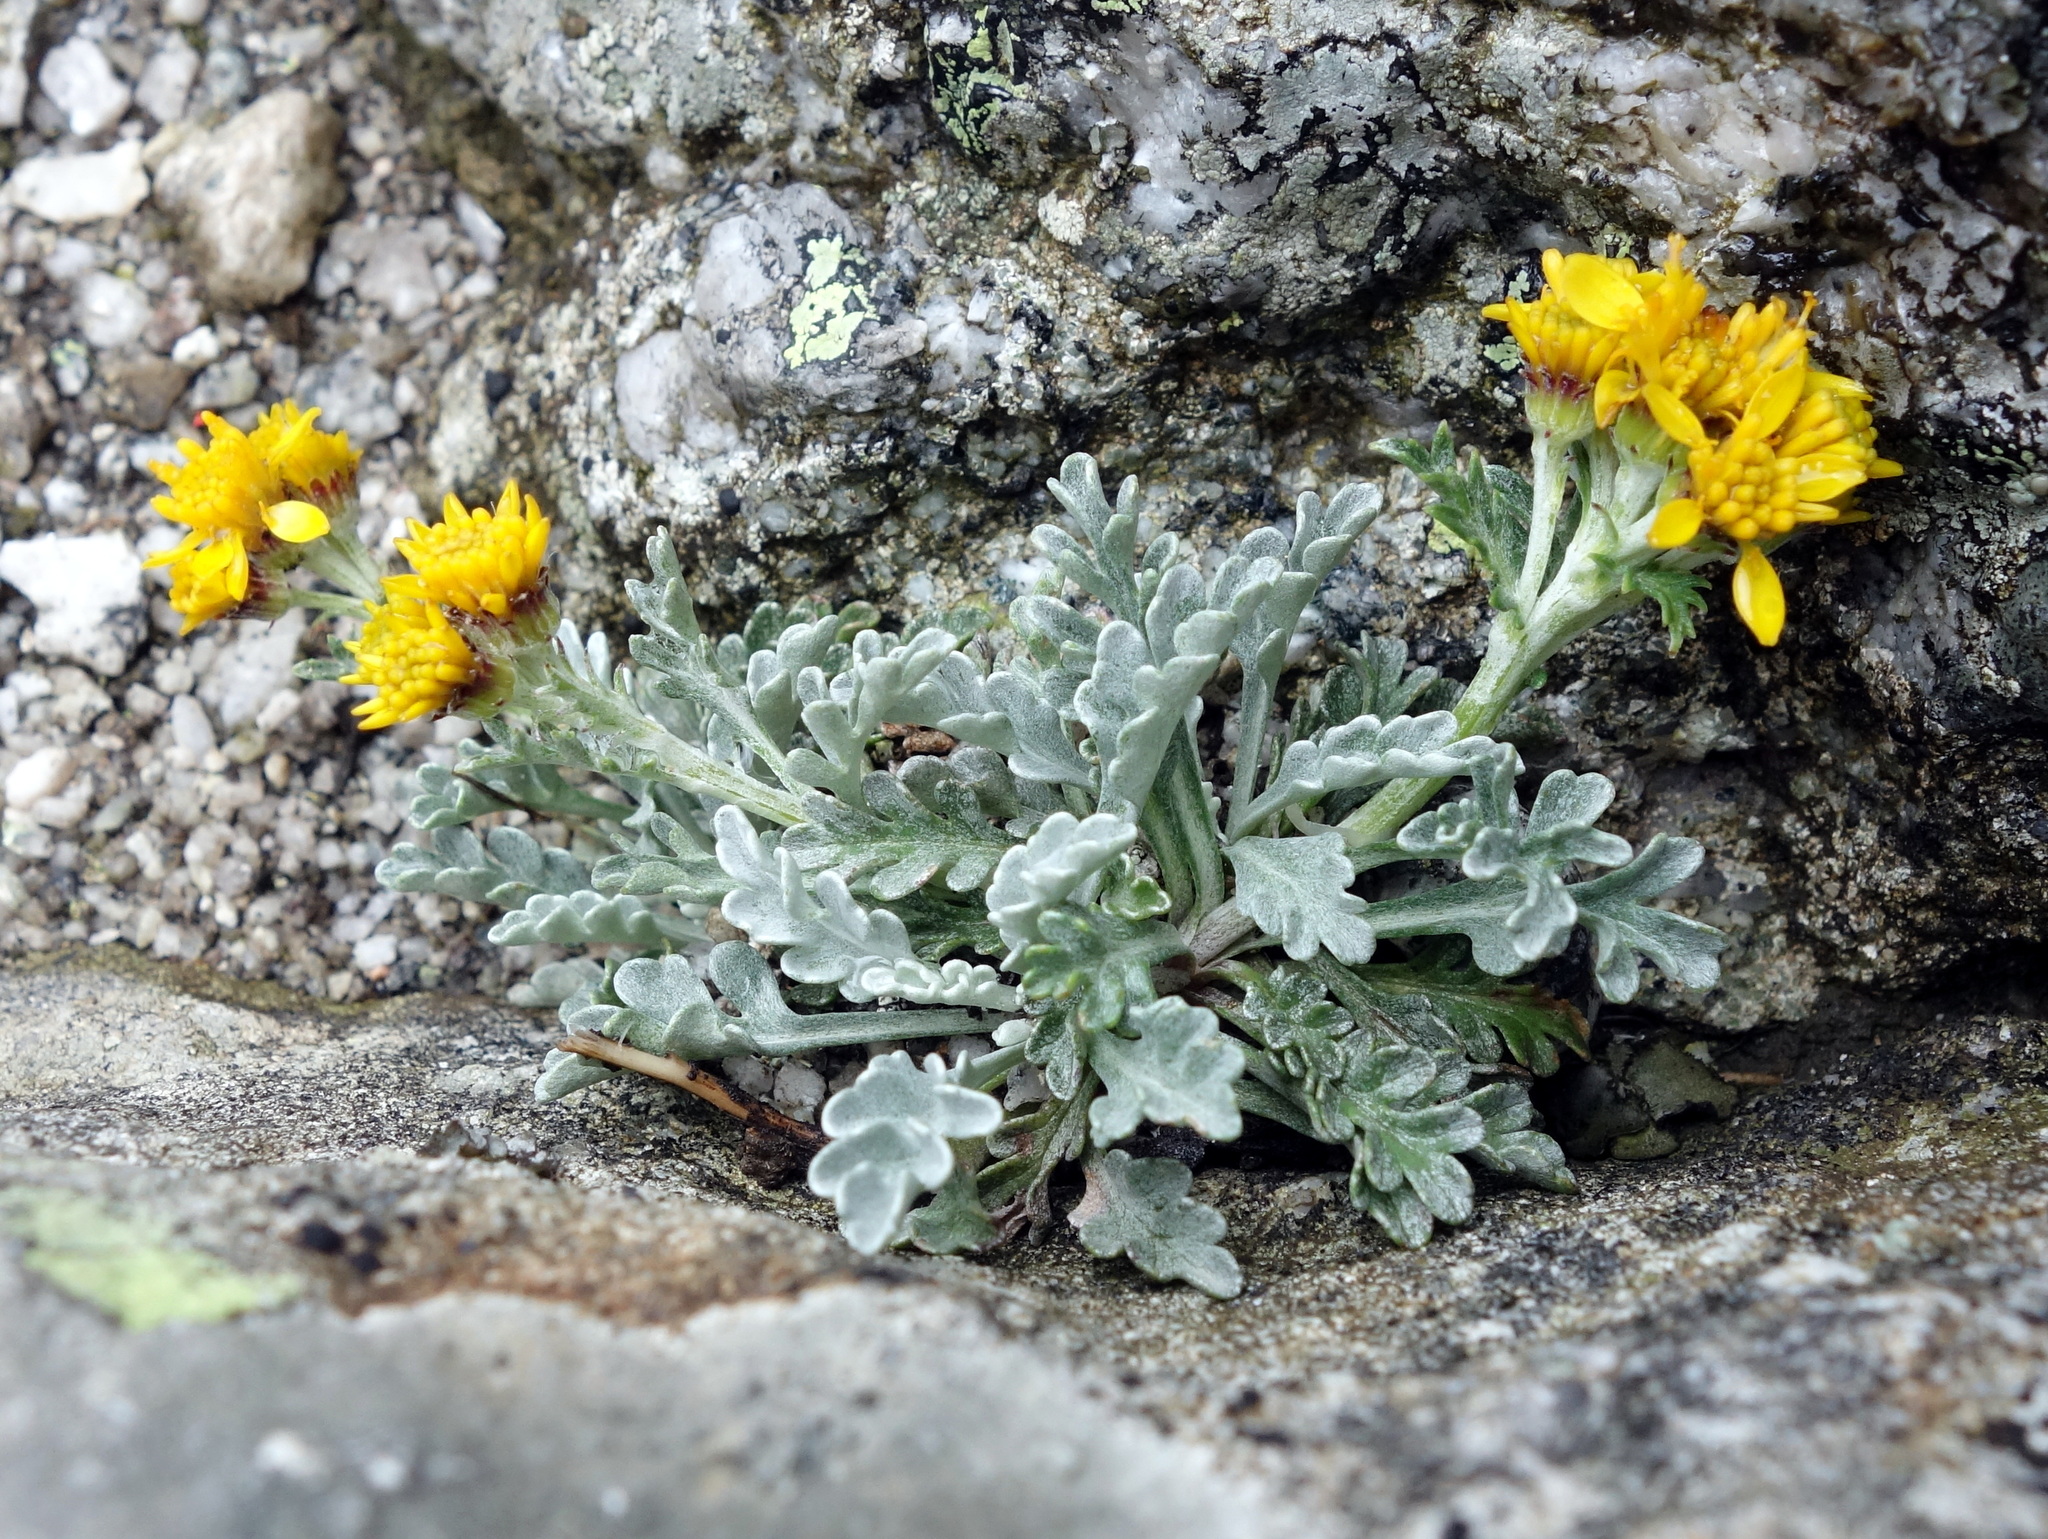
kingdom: Plantae
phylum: Tracheophyta
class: Magnoliopsida
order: Asterales
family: Asteraceae
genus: Jacobaea
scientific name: Jacobaea insubrica
